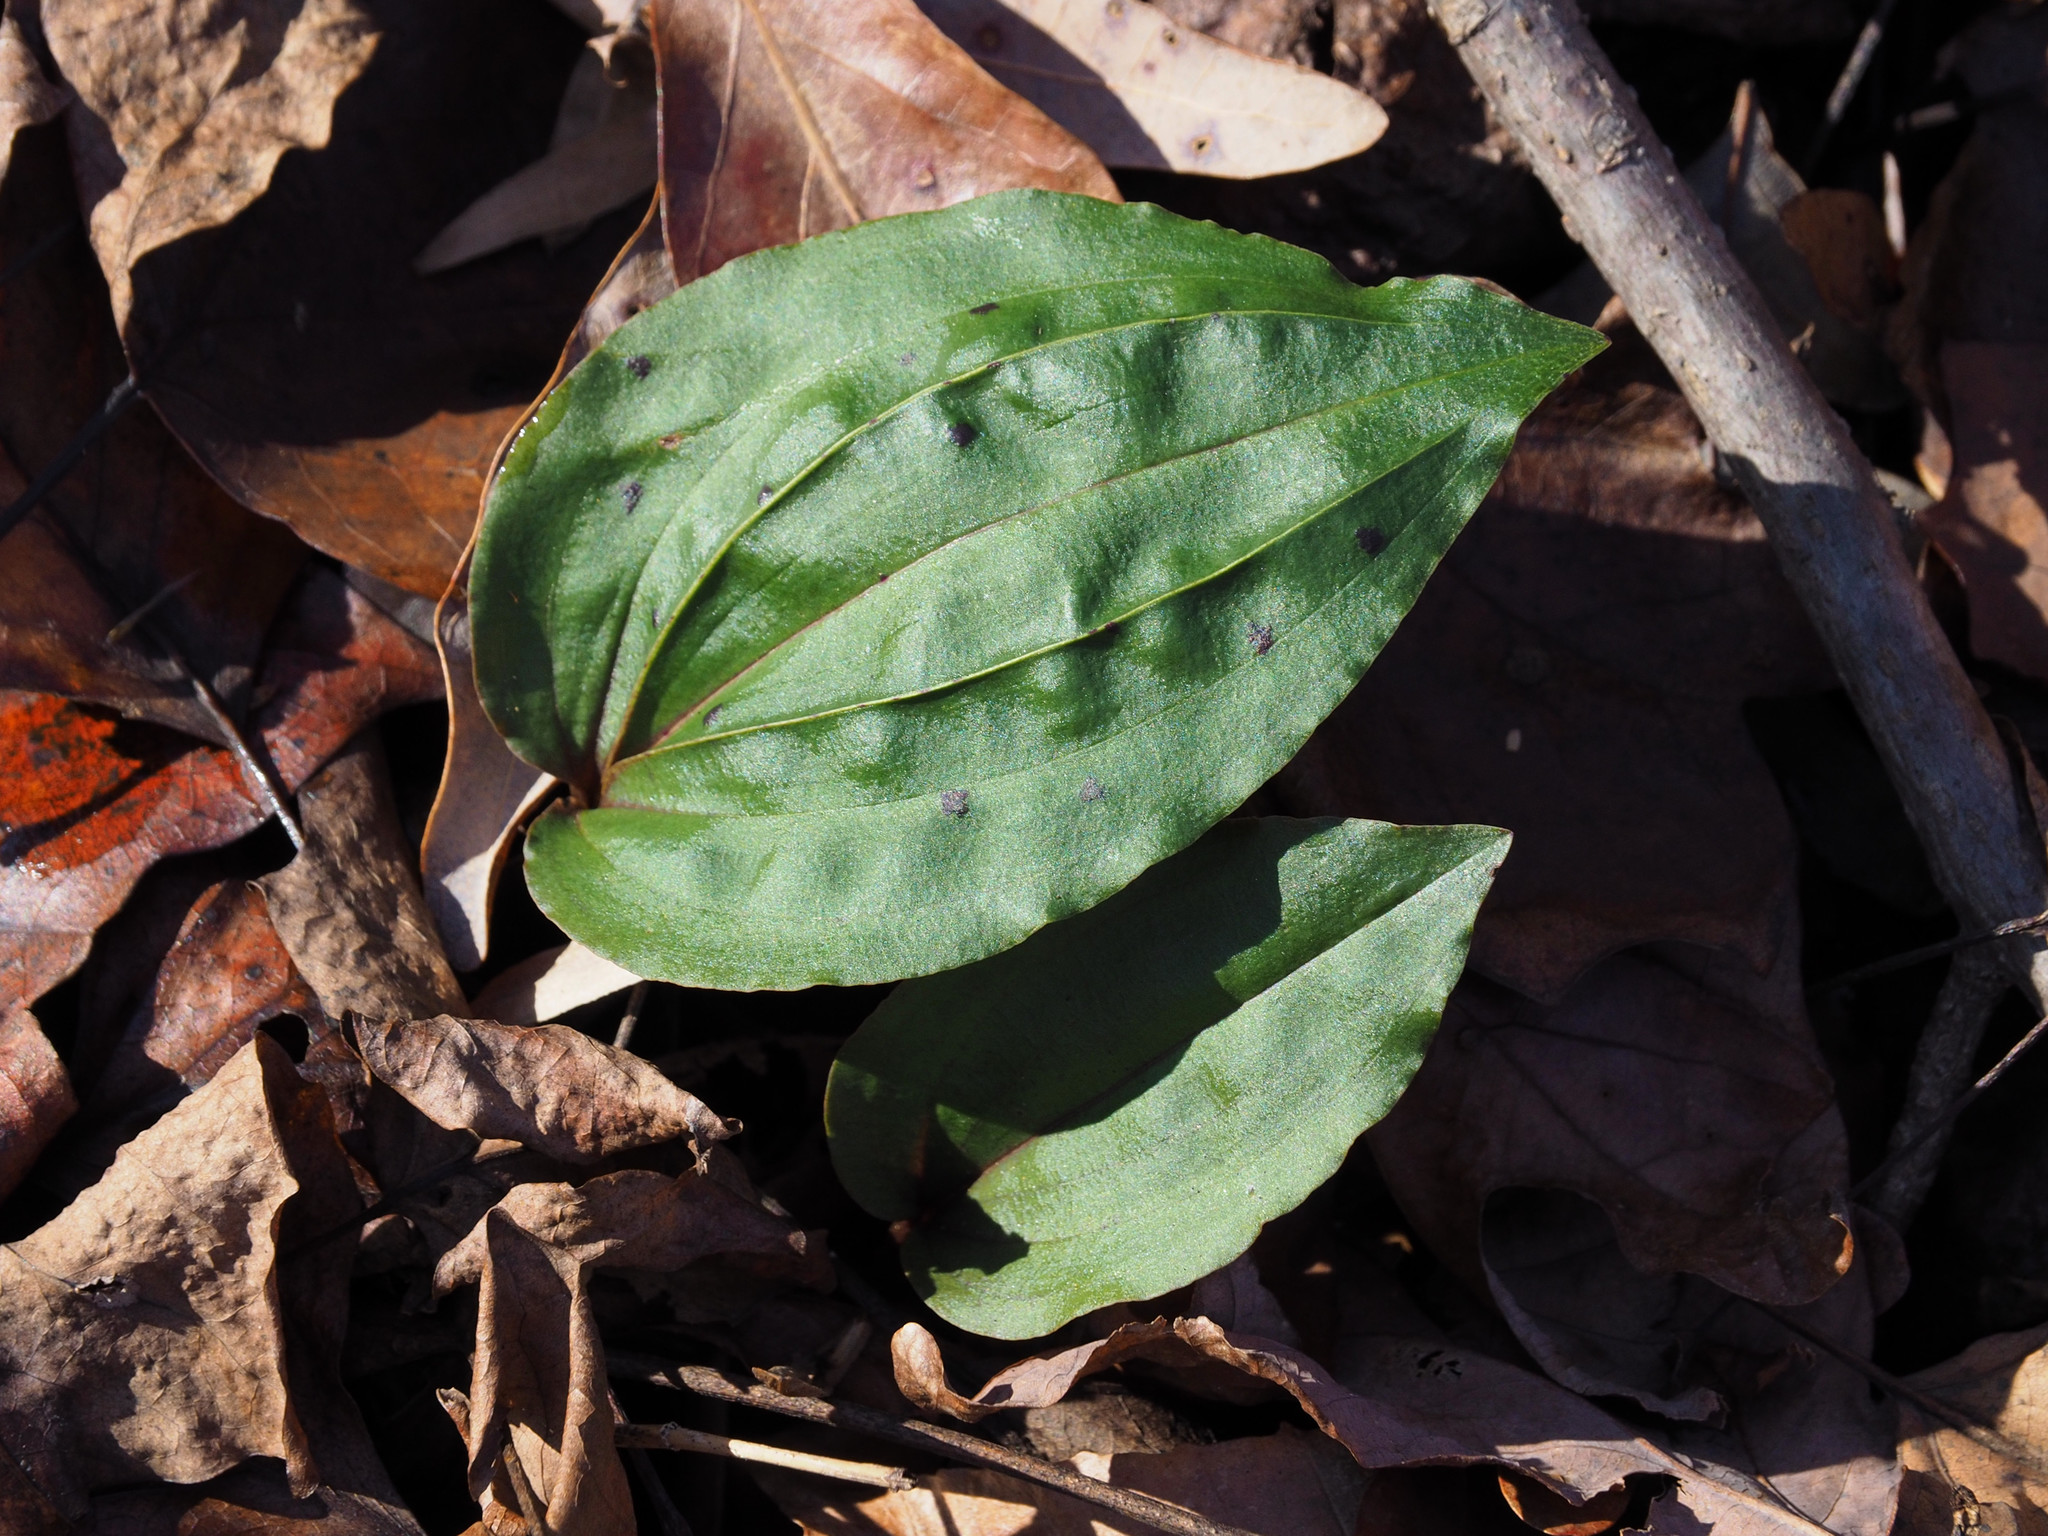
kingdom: Plantae
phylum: Tracheophyta
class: Liliopsida
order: Asparagales
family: Orchidaceae
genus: Tipularia
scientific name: Tipularia discolor
